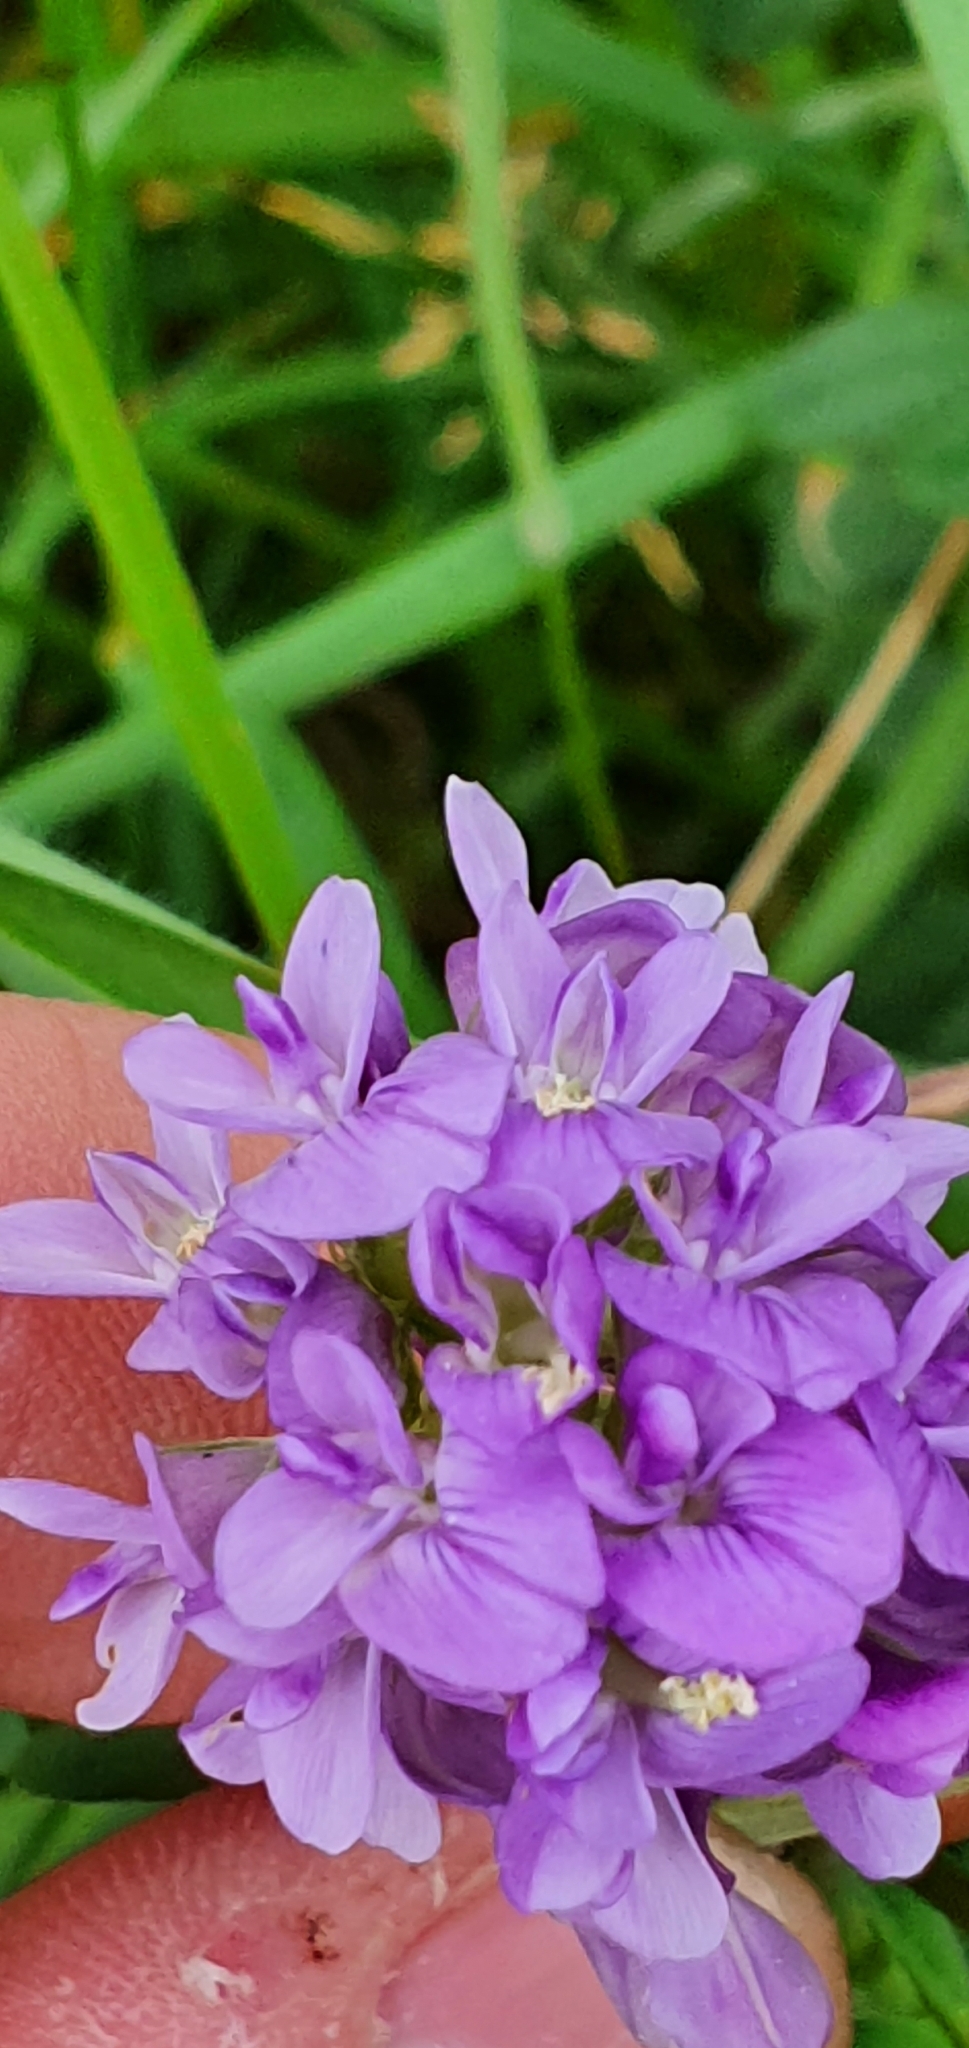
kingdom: Plantae
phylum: Tracheophyta
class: Magnoliopsida
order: Fabales
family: Fabaceae
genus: Medicago
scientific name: Medicago sativa
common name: Alfalfa
